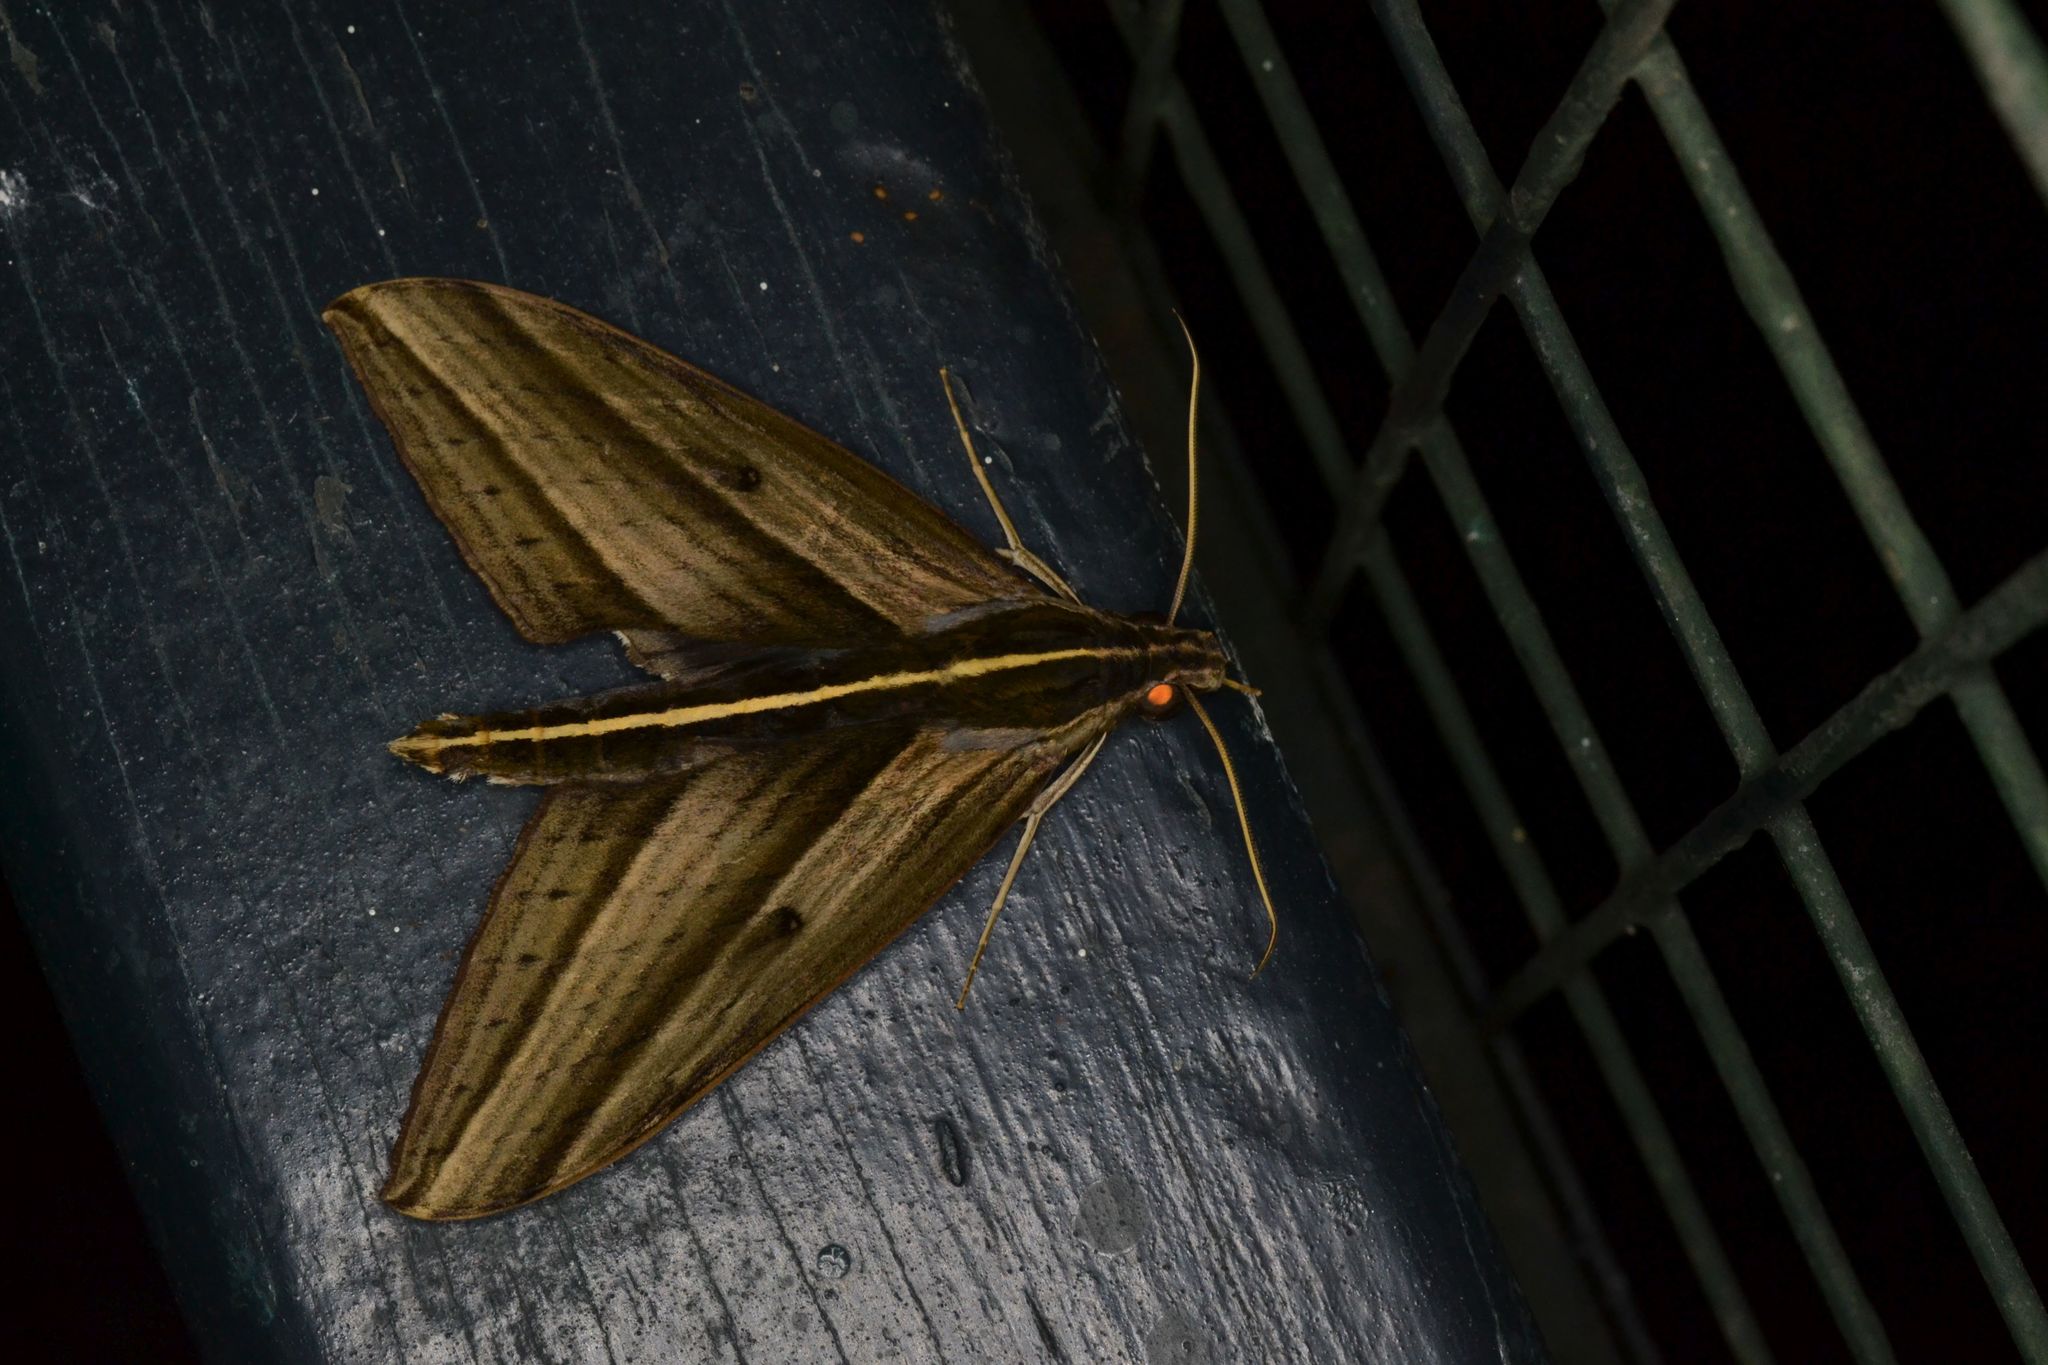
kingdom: Animalia
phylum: Arthropoda
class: Insecta
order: Lepidoptera
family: Sphingidae
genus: Elibia
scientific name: Elibia dolichus
